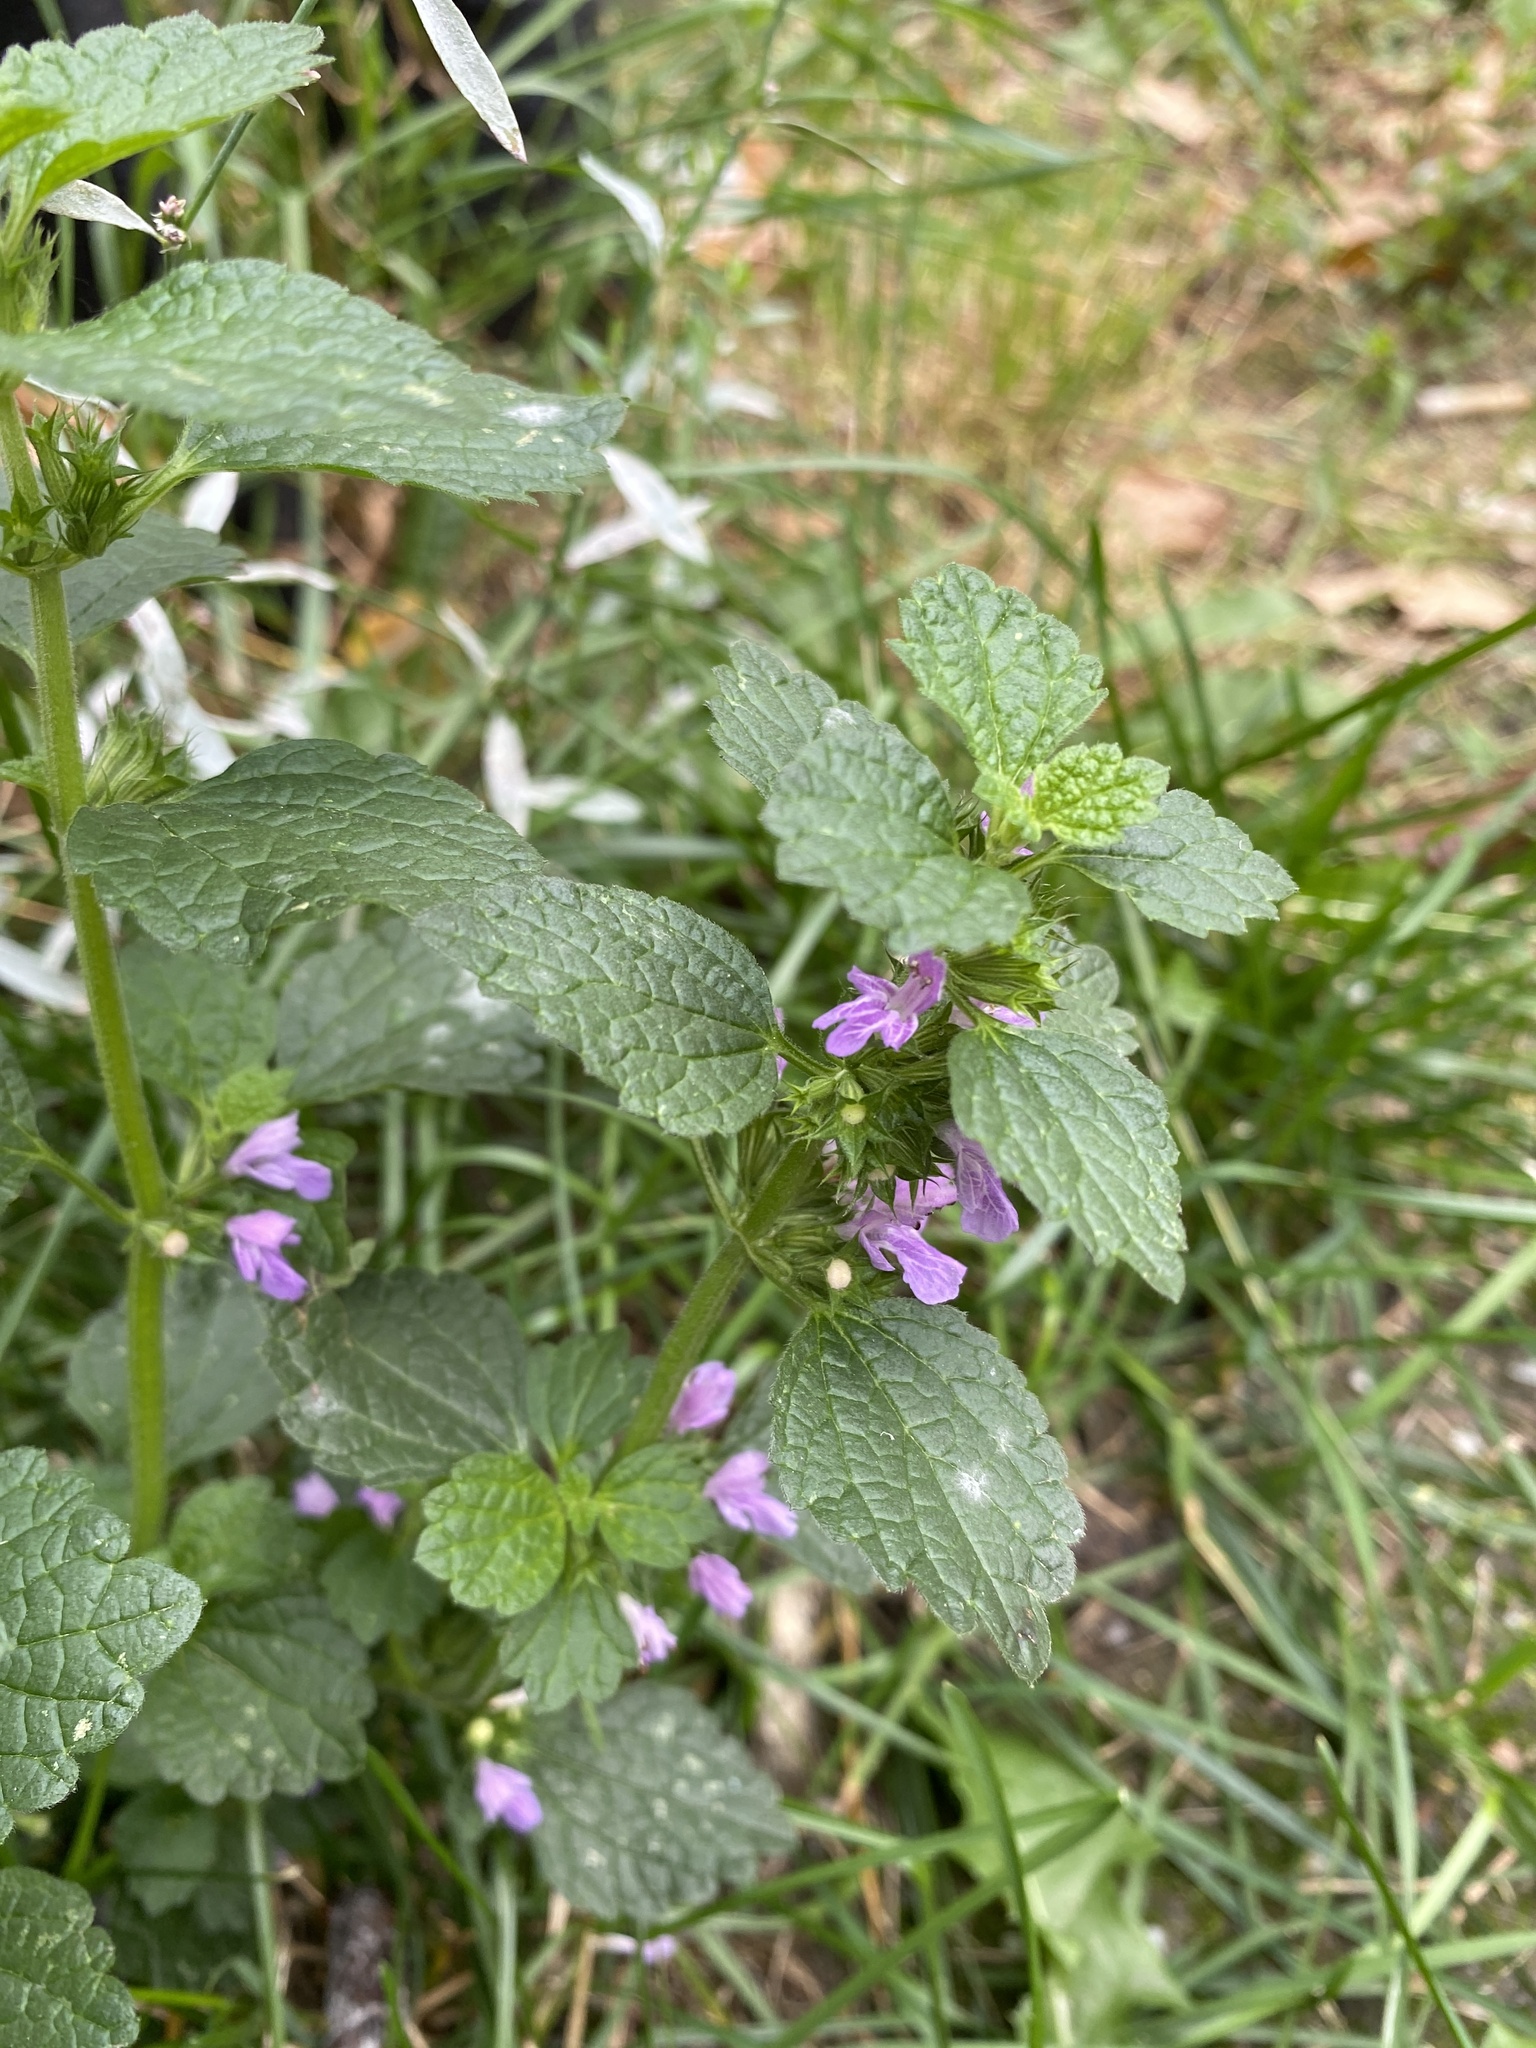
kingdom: Plantae
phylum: Tracheophyta
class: Magnoliopsida
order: Lamiales
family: Lamiaceae
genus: Ballota
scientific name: Ballota nigra
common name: Black horehound
